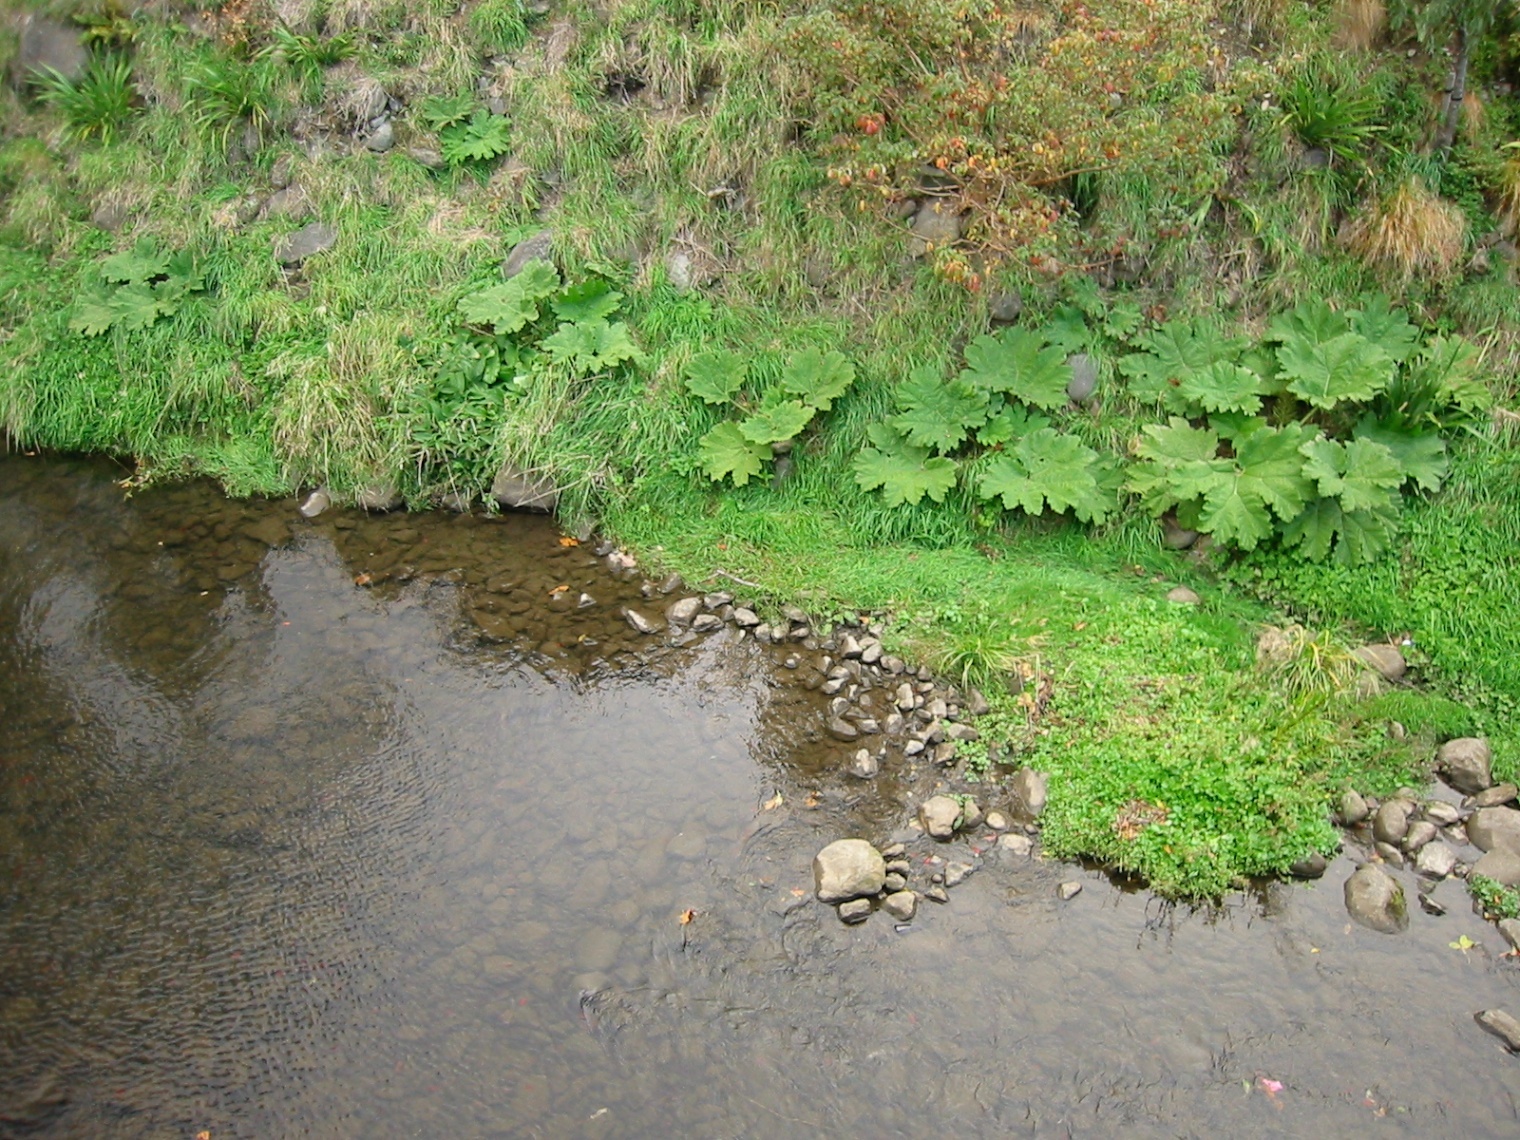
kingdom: Plantae
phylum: Tracheophyta
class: Magnoliopsida
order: Gunnerales
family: Gunneraceae
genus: Gunnera
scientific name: Gunnera tinctoria
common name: Giant-rhubarb
